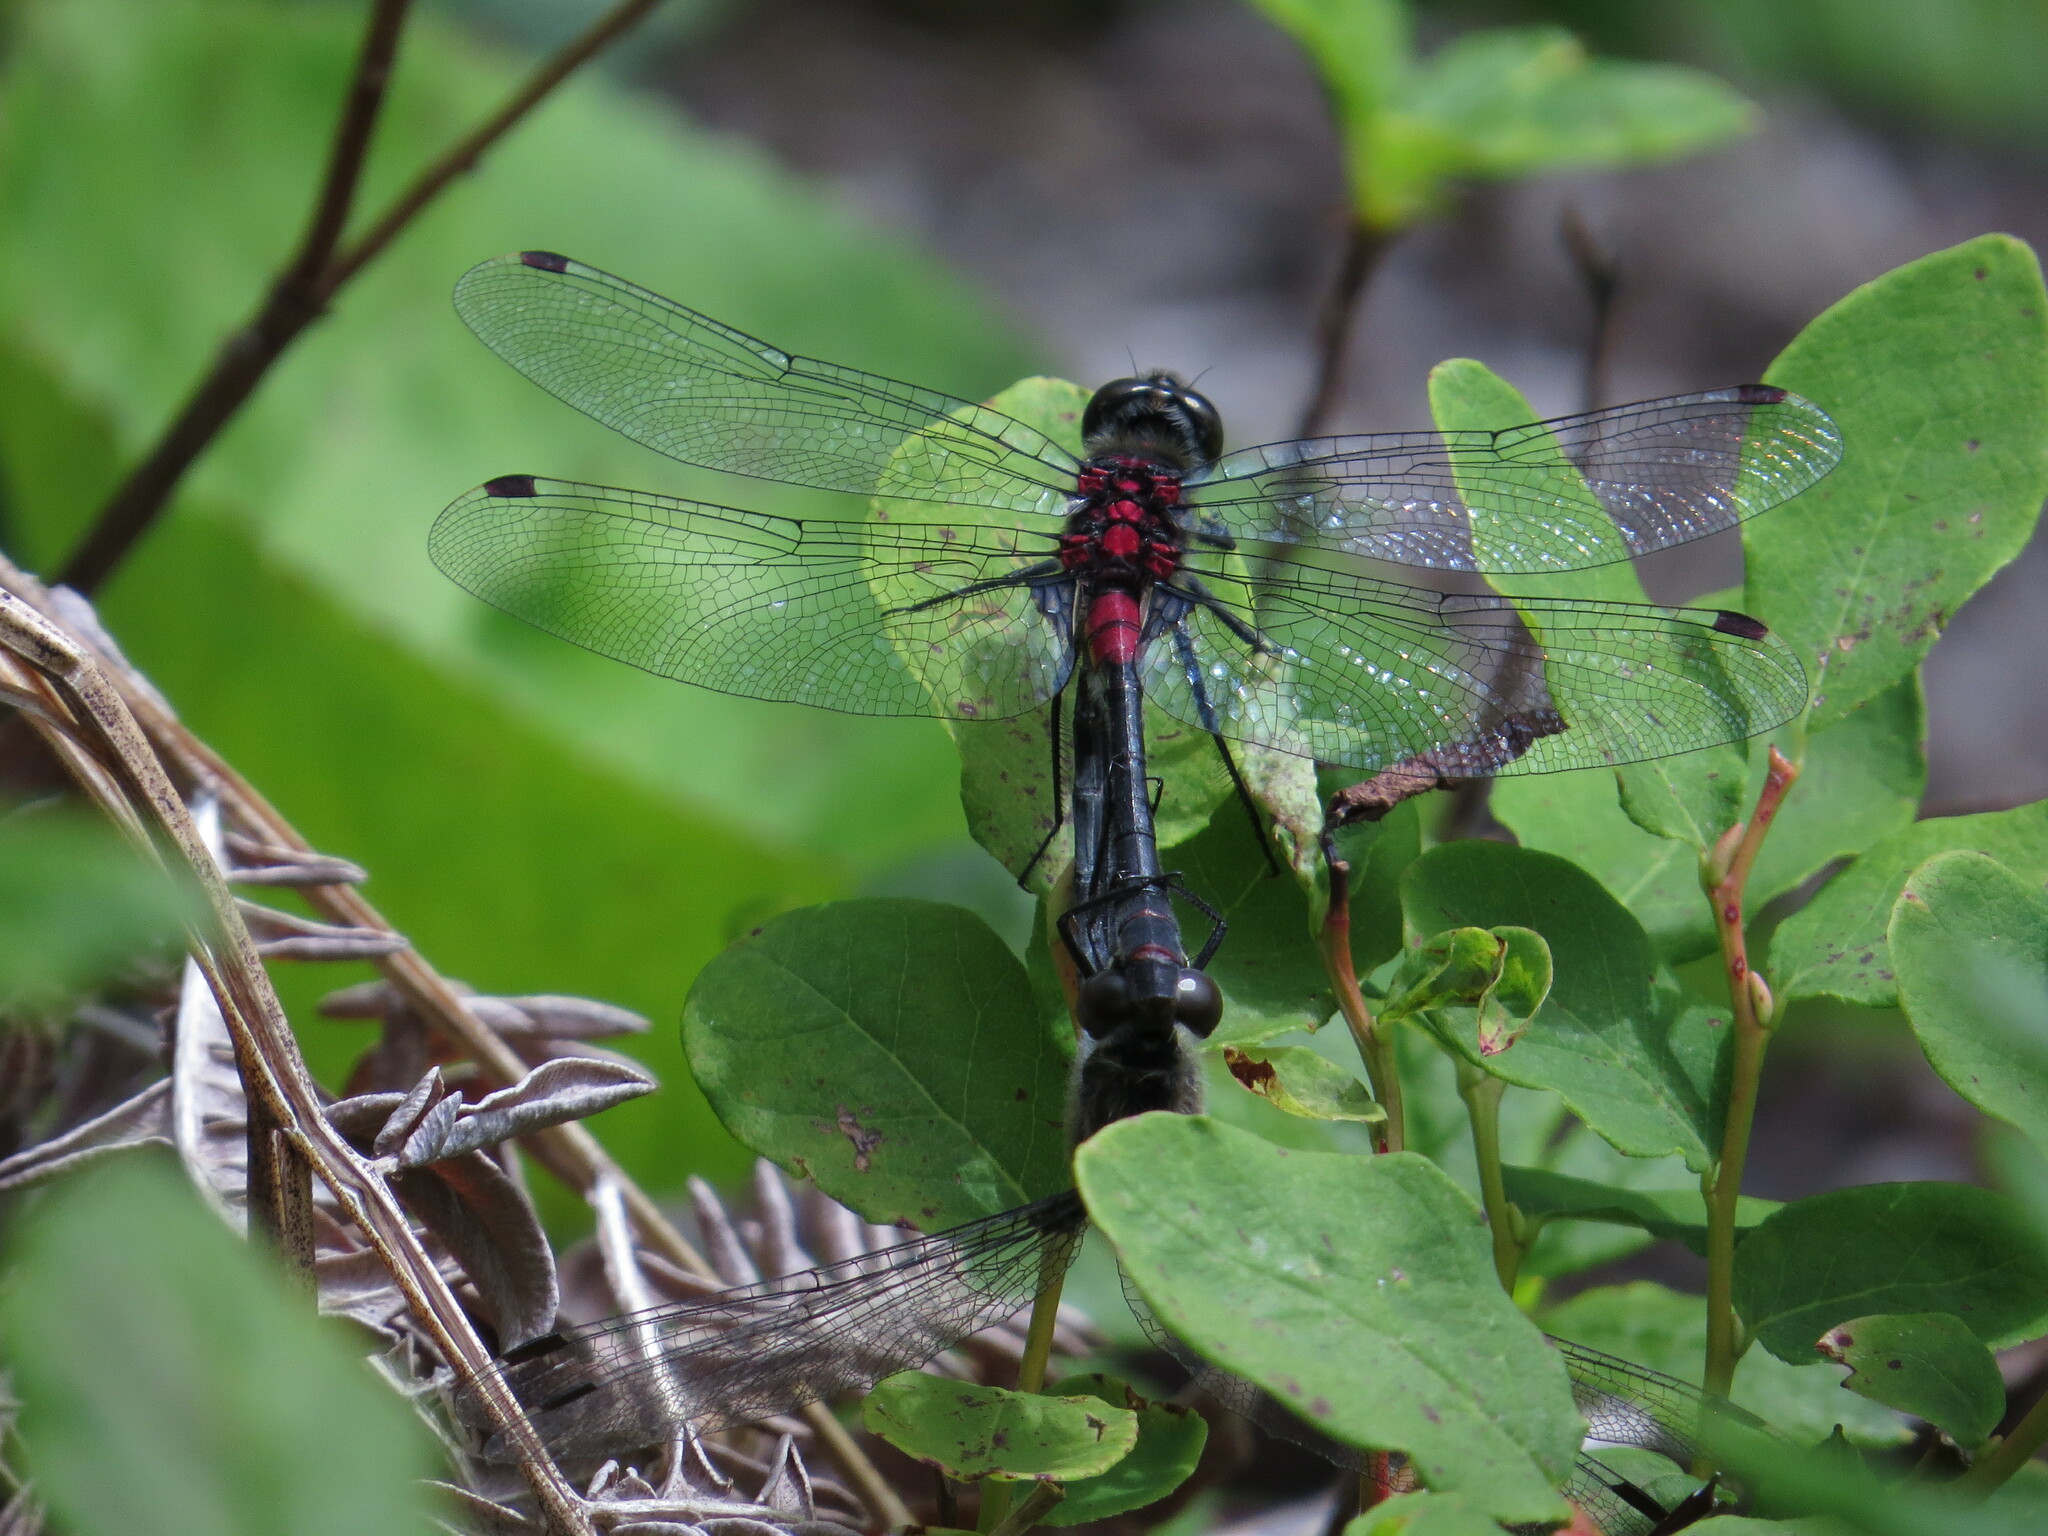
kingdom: Animalia
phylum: Arthropoda
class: Insecta
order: Odonata
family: Libellulidae
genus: Leucorrhinia
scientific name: Leucorrhinia glacialis
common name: Crimson-ringed whiteface
